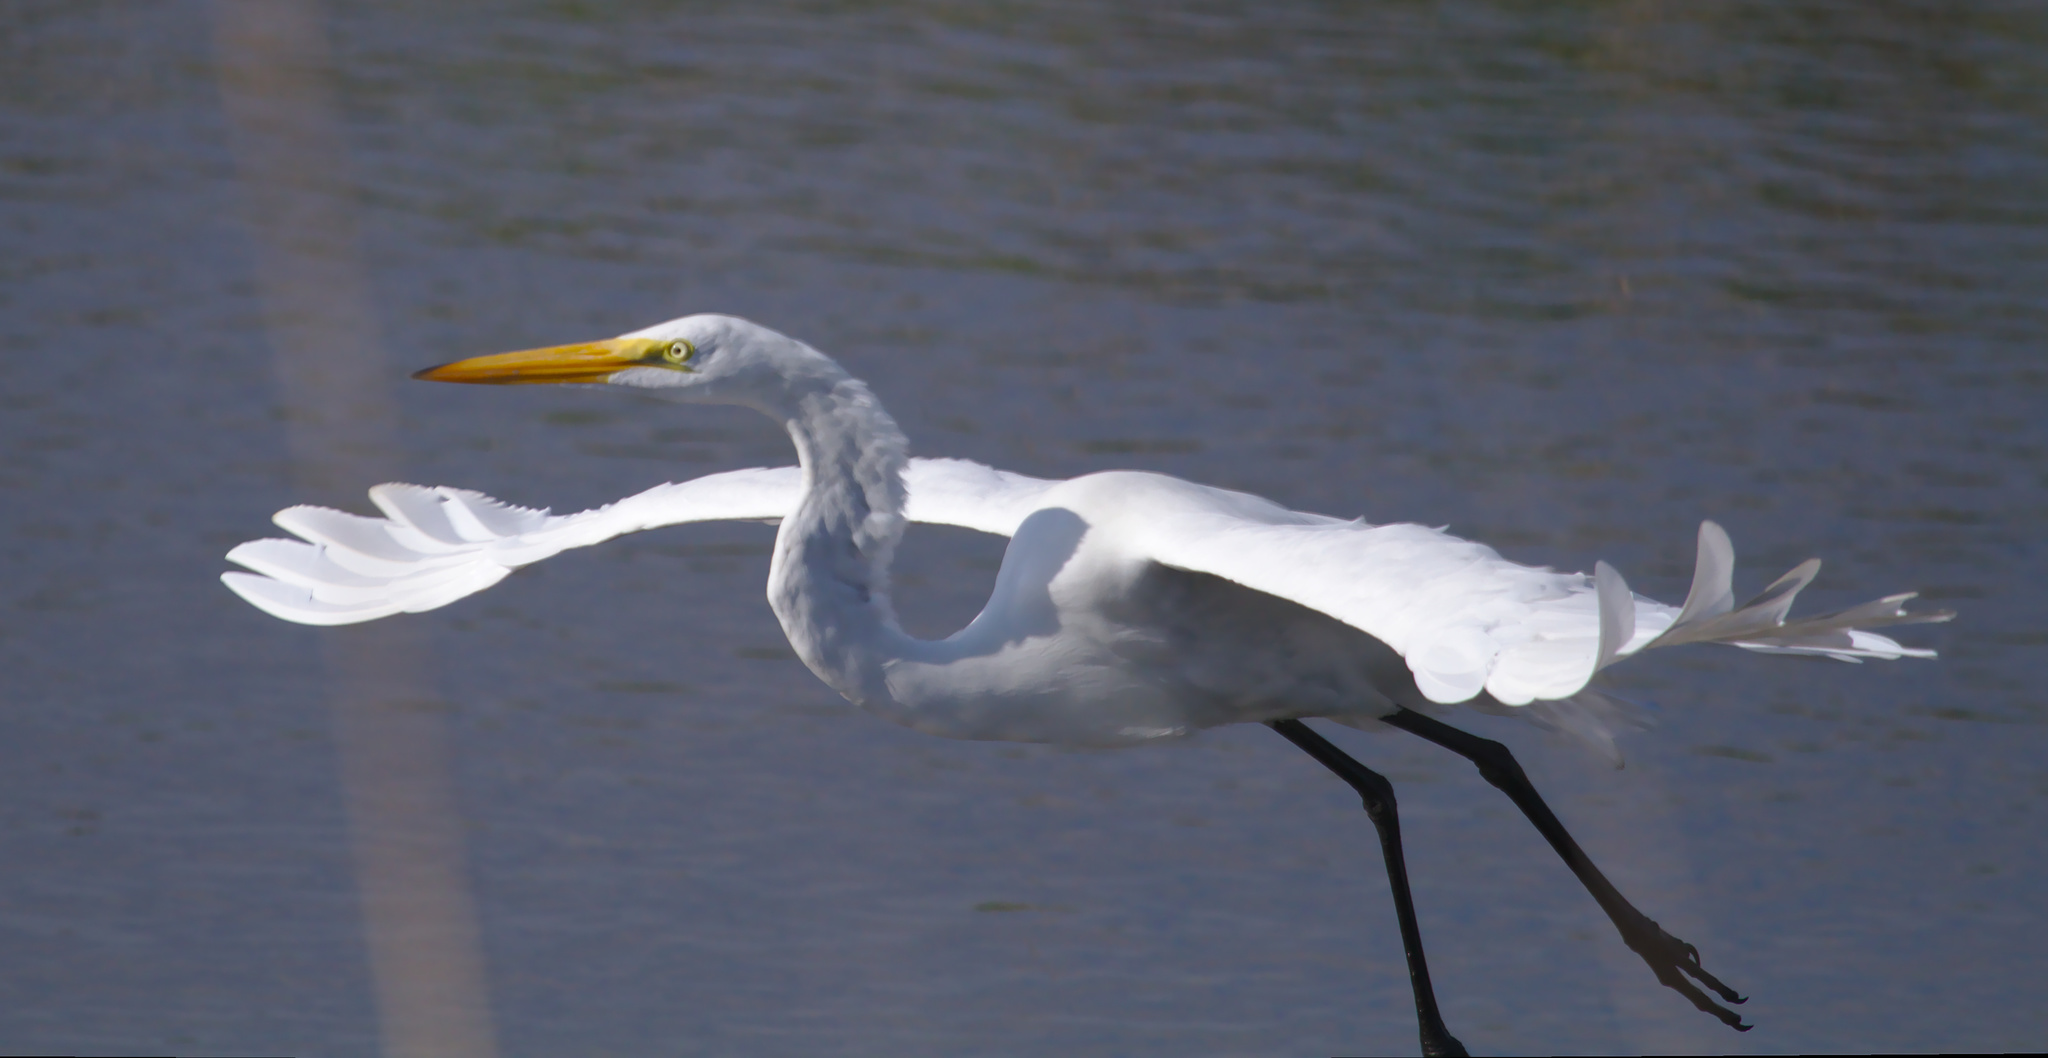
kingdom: Animalia
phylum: Chordata
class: Aves
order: Pelecaniformes
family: Ardeidae
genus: Ardea
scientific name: Ardea alba
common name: Great egret
